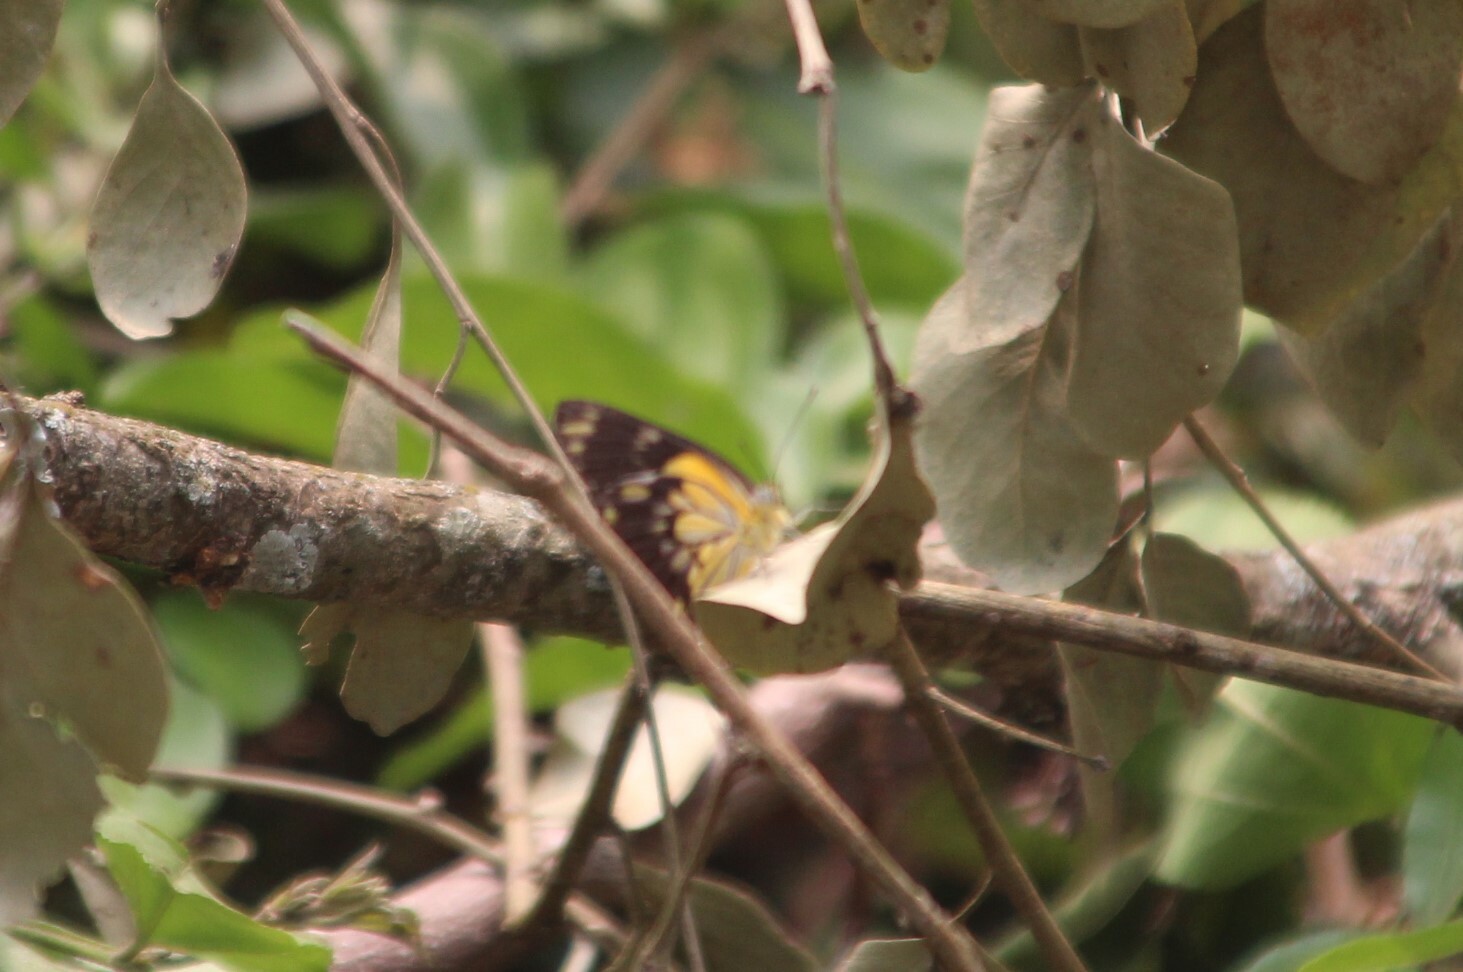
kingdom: Animalia
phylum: Arthropoda
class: Insecta
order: Lepidoptera
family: Pieridae
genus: Belenois
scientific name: Belenois creona
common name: African caper white
